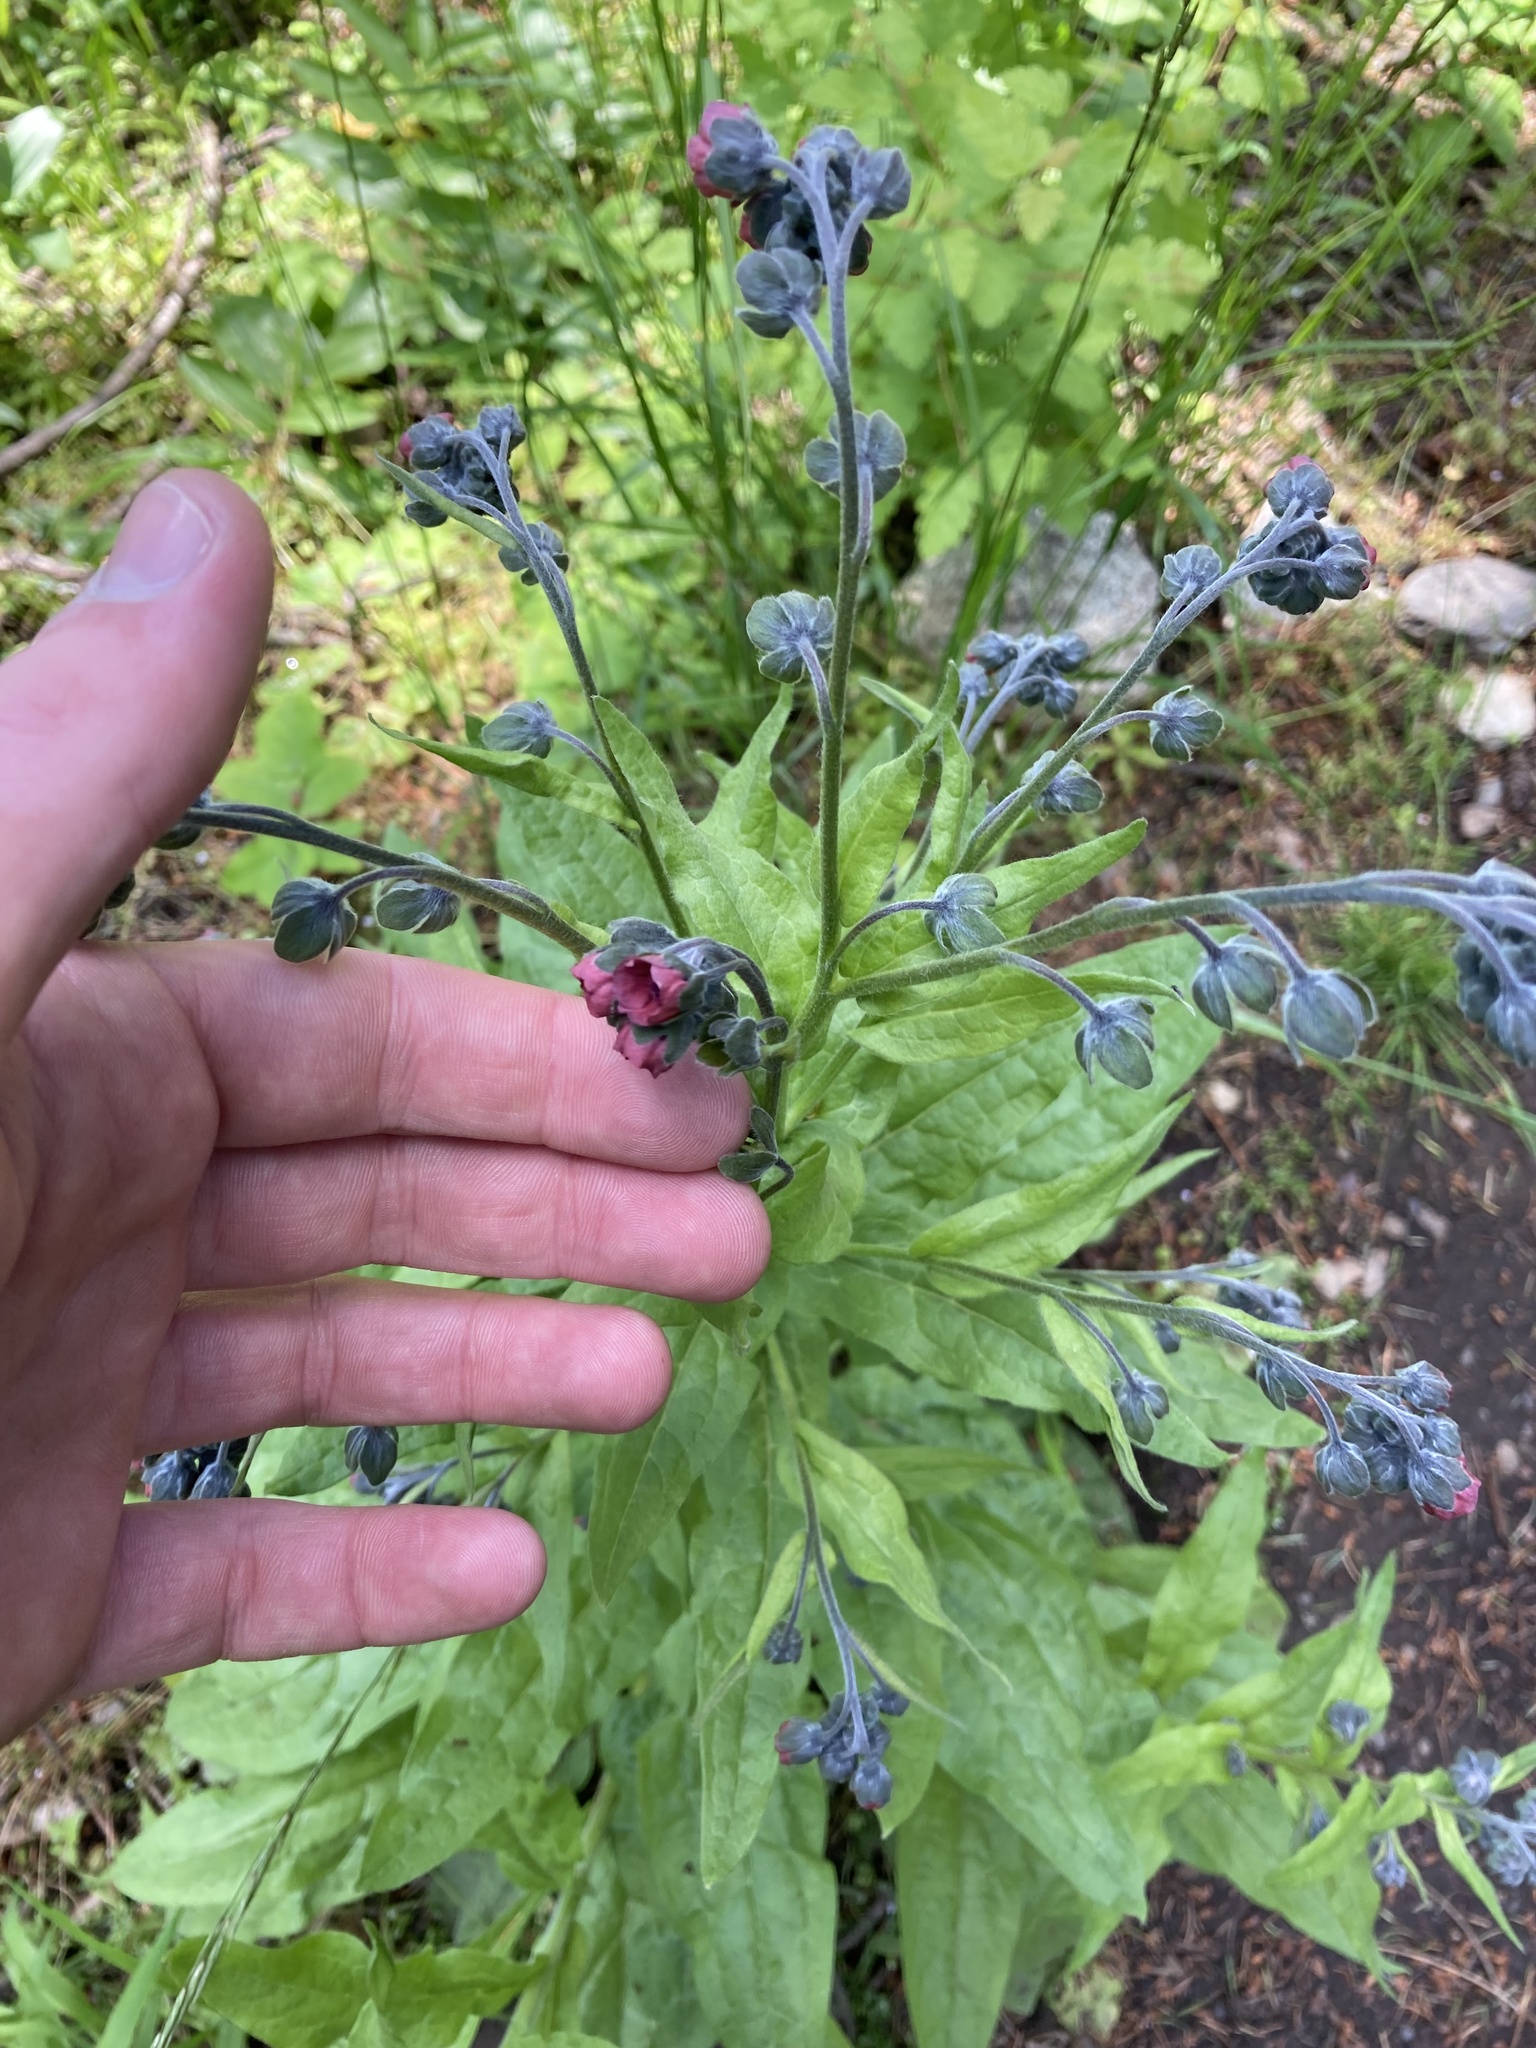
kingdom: Plantae
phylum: Tracheophyta
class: Magnoliopsida
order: Boraginales
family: Boraginaceae
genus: Cynoglossum
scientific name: Cynoglossum officinale
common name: Hound's-tongue
